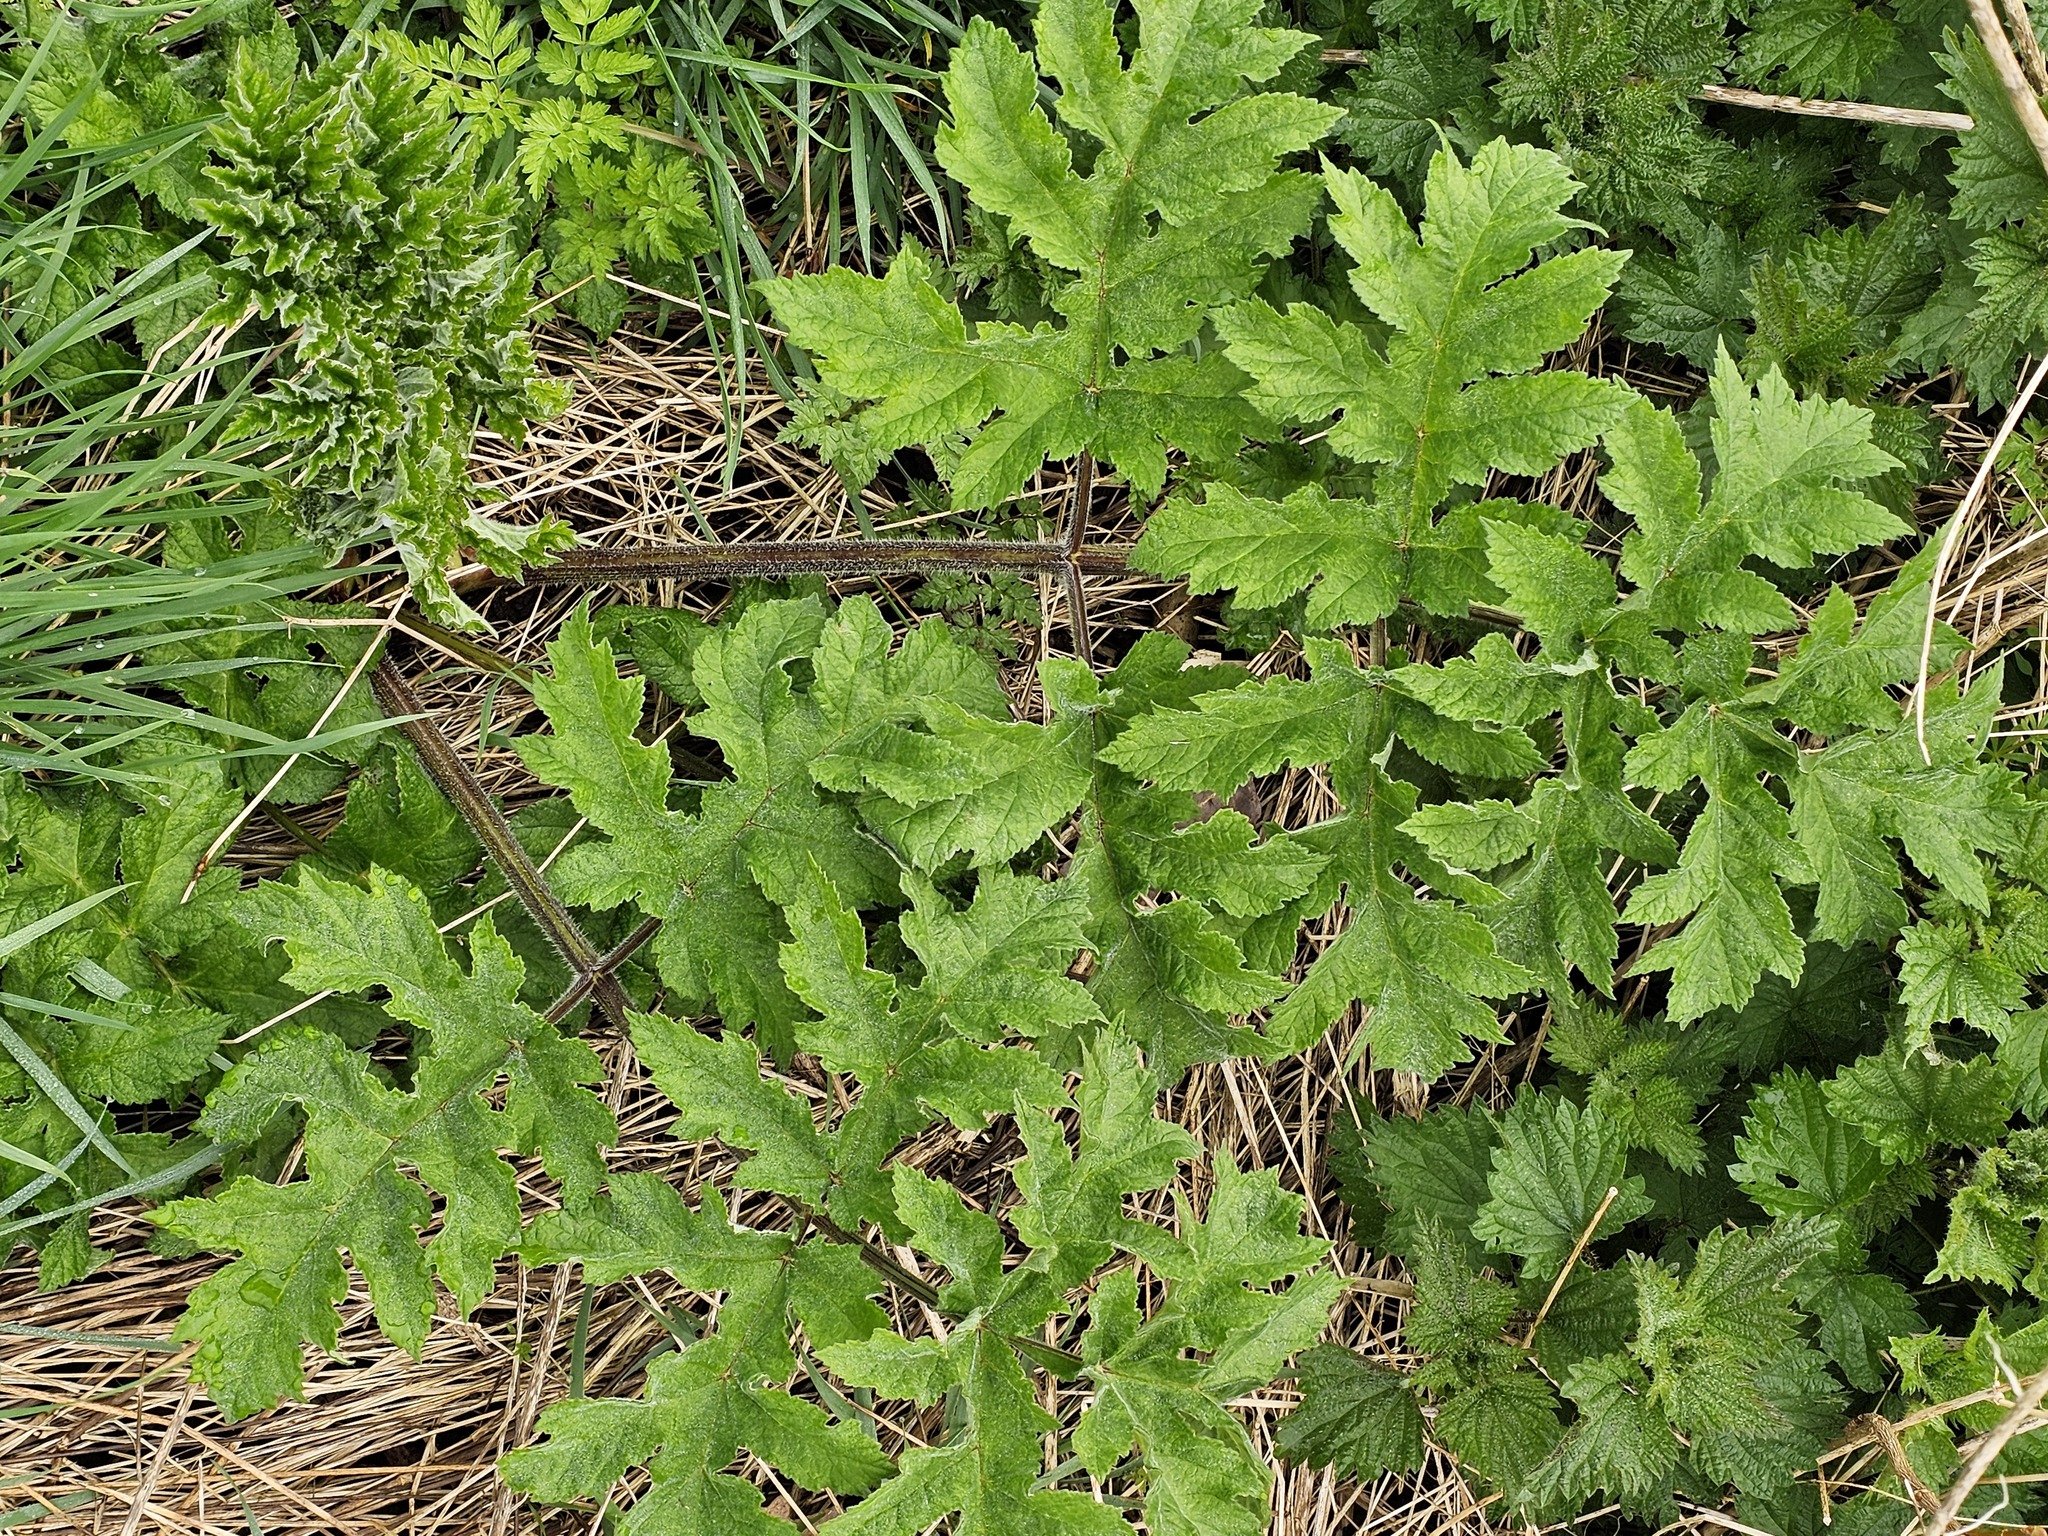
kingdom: Plantae
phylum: Tracheophyta
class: Magnoliopsida
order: Apiales
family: Apiaceae
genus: Heracleum
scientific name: Heracleum sphondylium
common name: Hogweed
